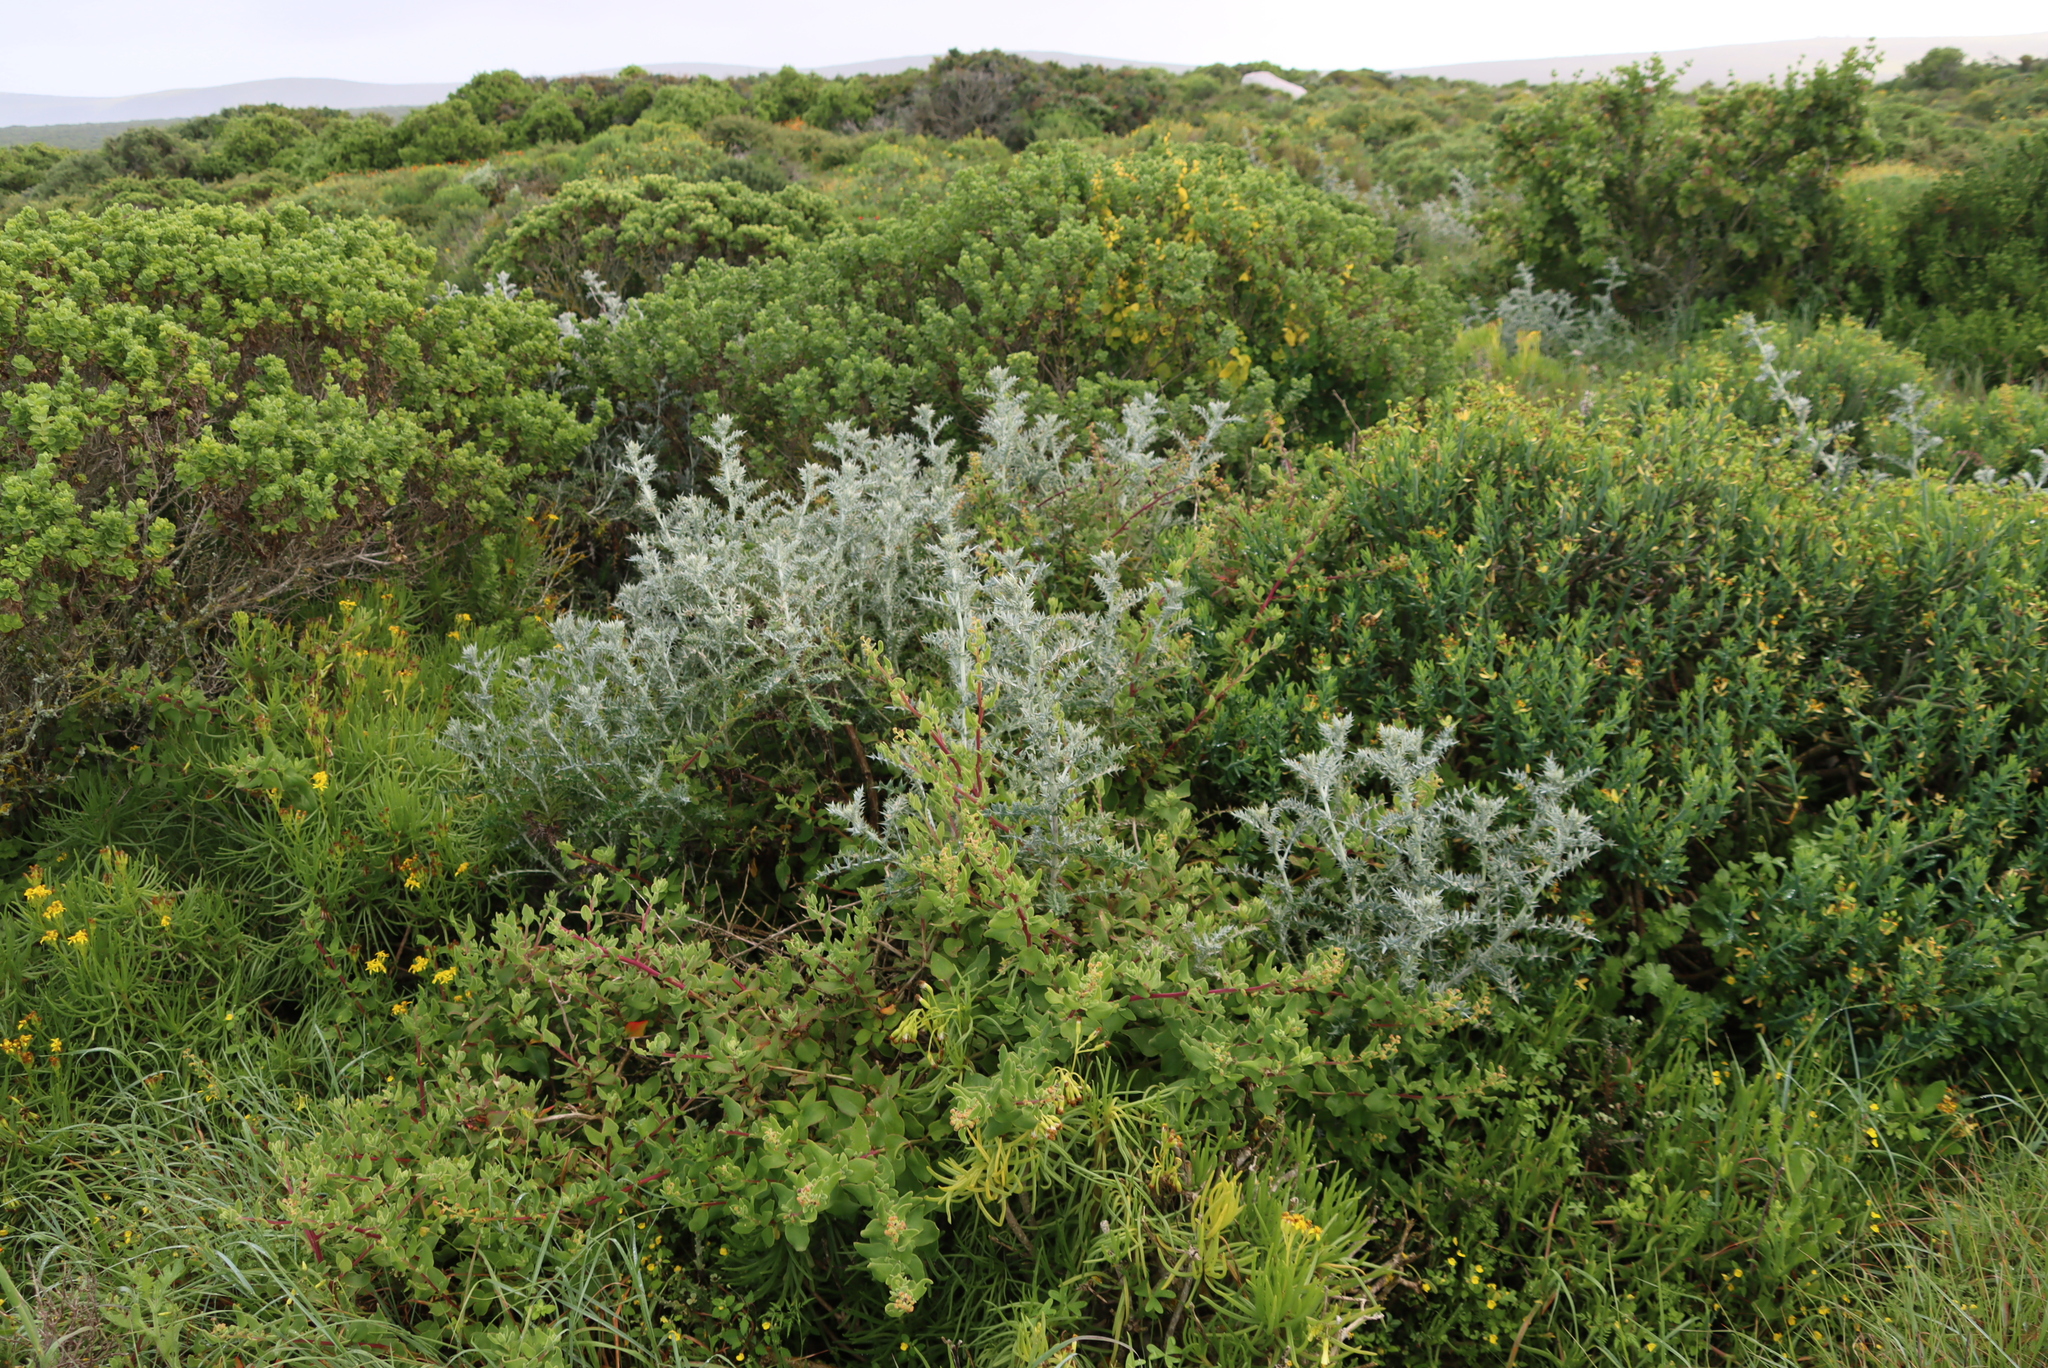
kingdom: Plantae
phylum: Tracheophyta
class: Magnoliopsida
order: Asterales
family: Asteraceae
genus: Berkheya
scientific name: Berkheya rigida
